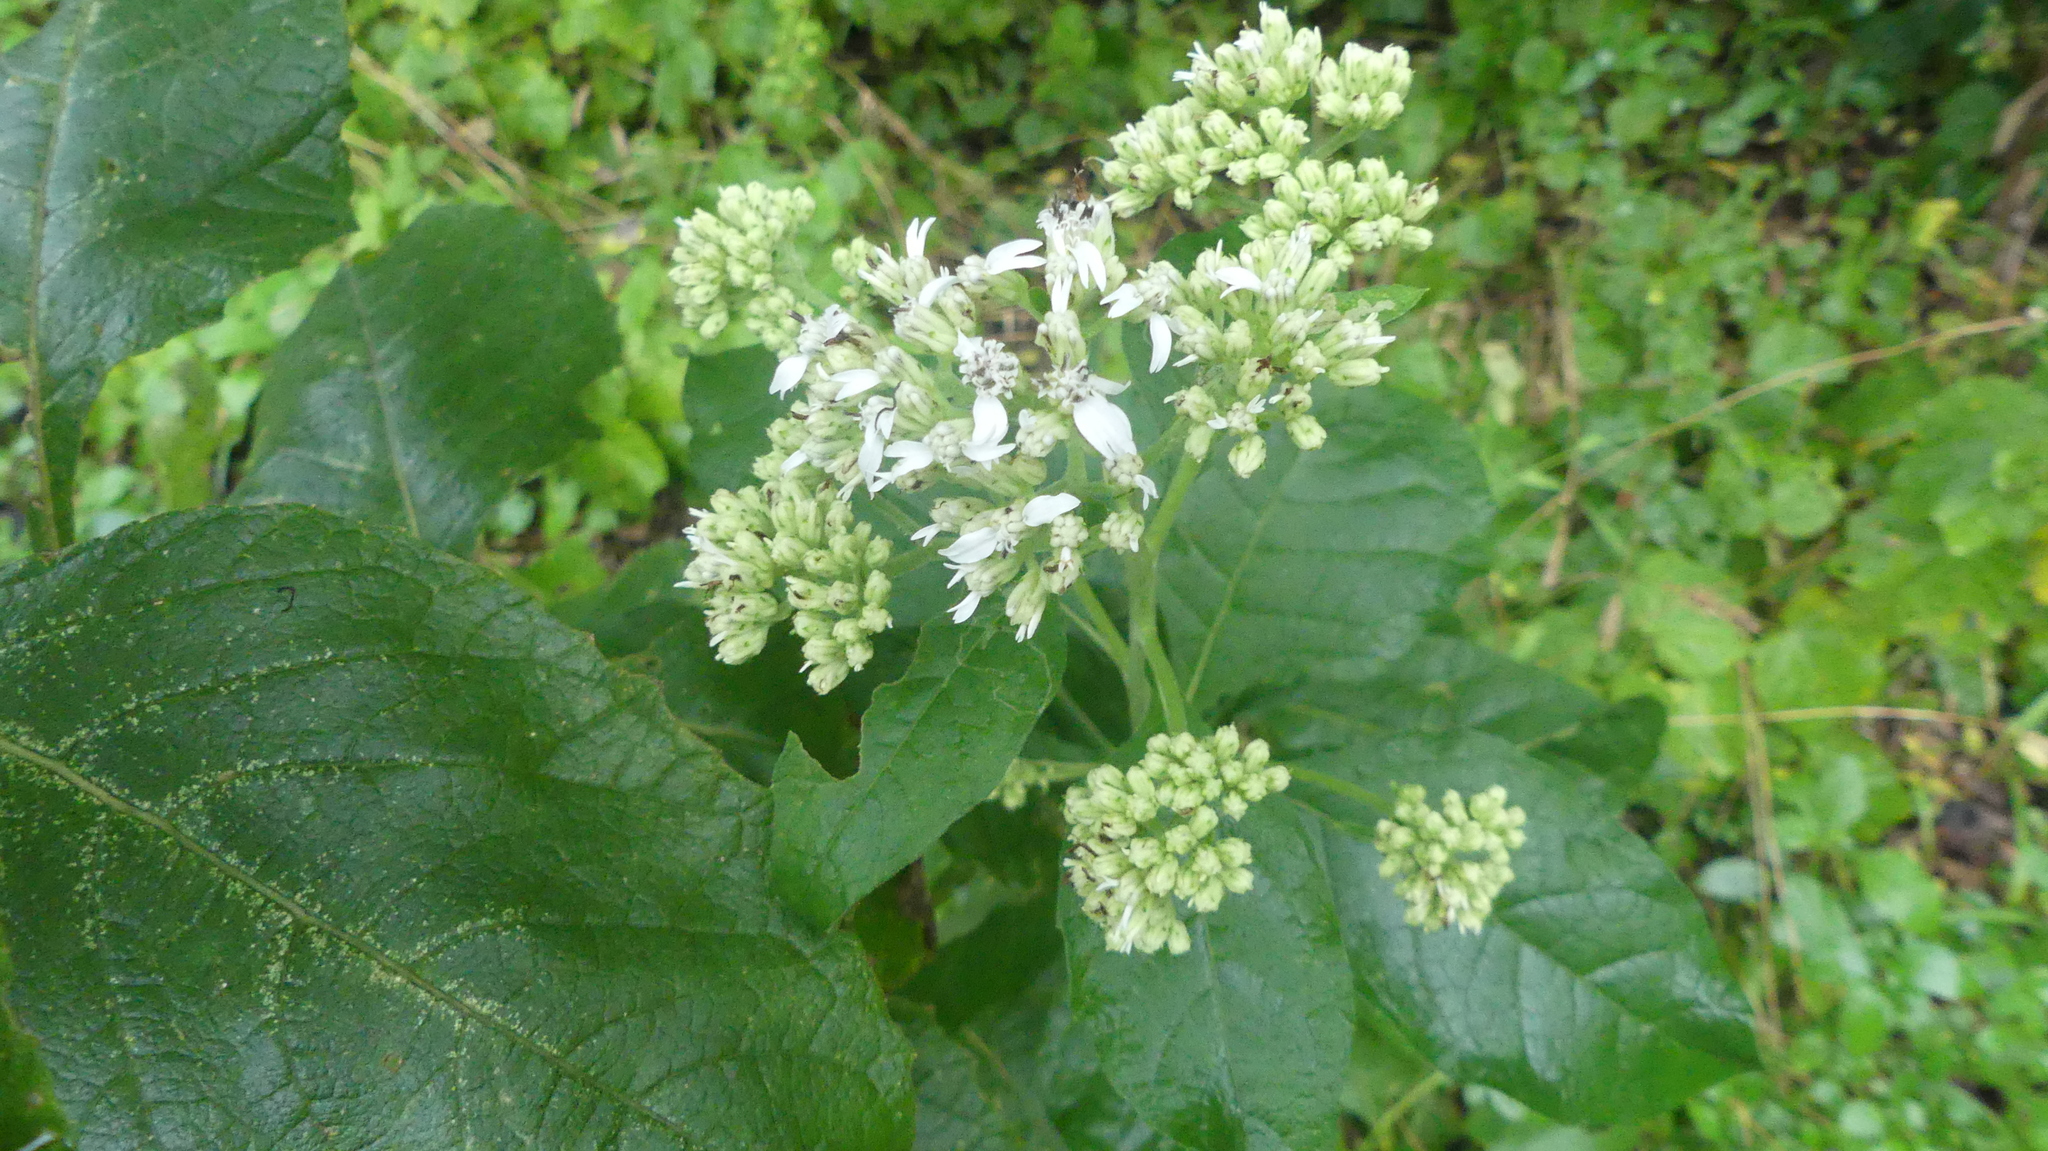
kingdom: Plantae
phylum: Tracheophyta
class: Magnoliopsida
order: Asterales
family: Asteraceae
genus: Verbesina
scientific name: Verbesina virginica
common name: Frostweed
